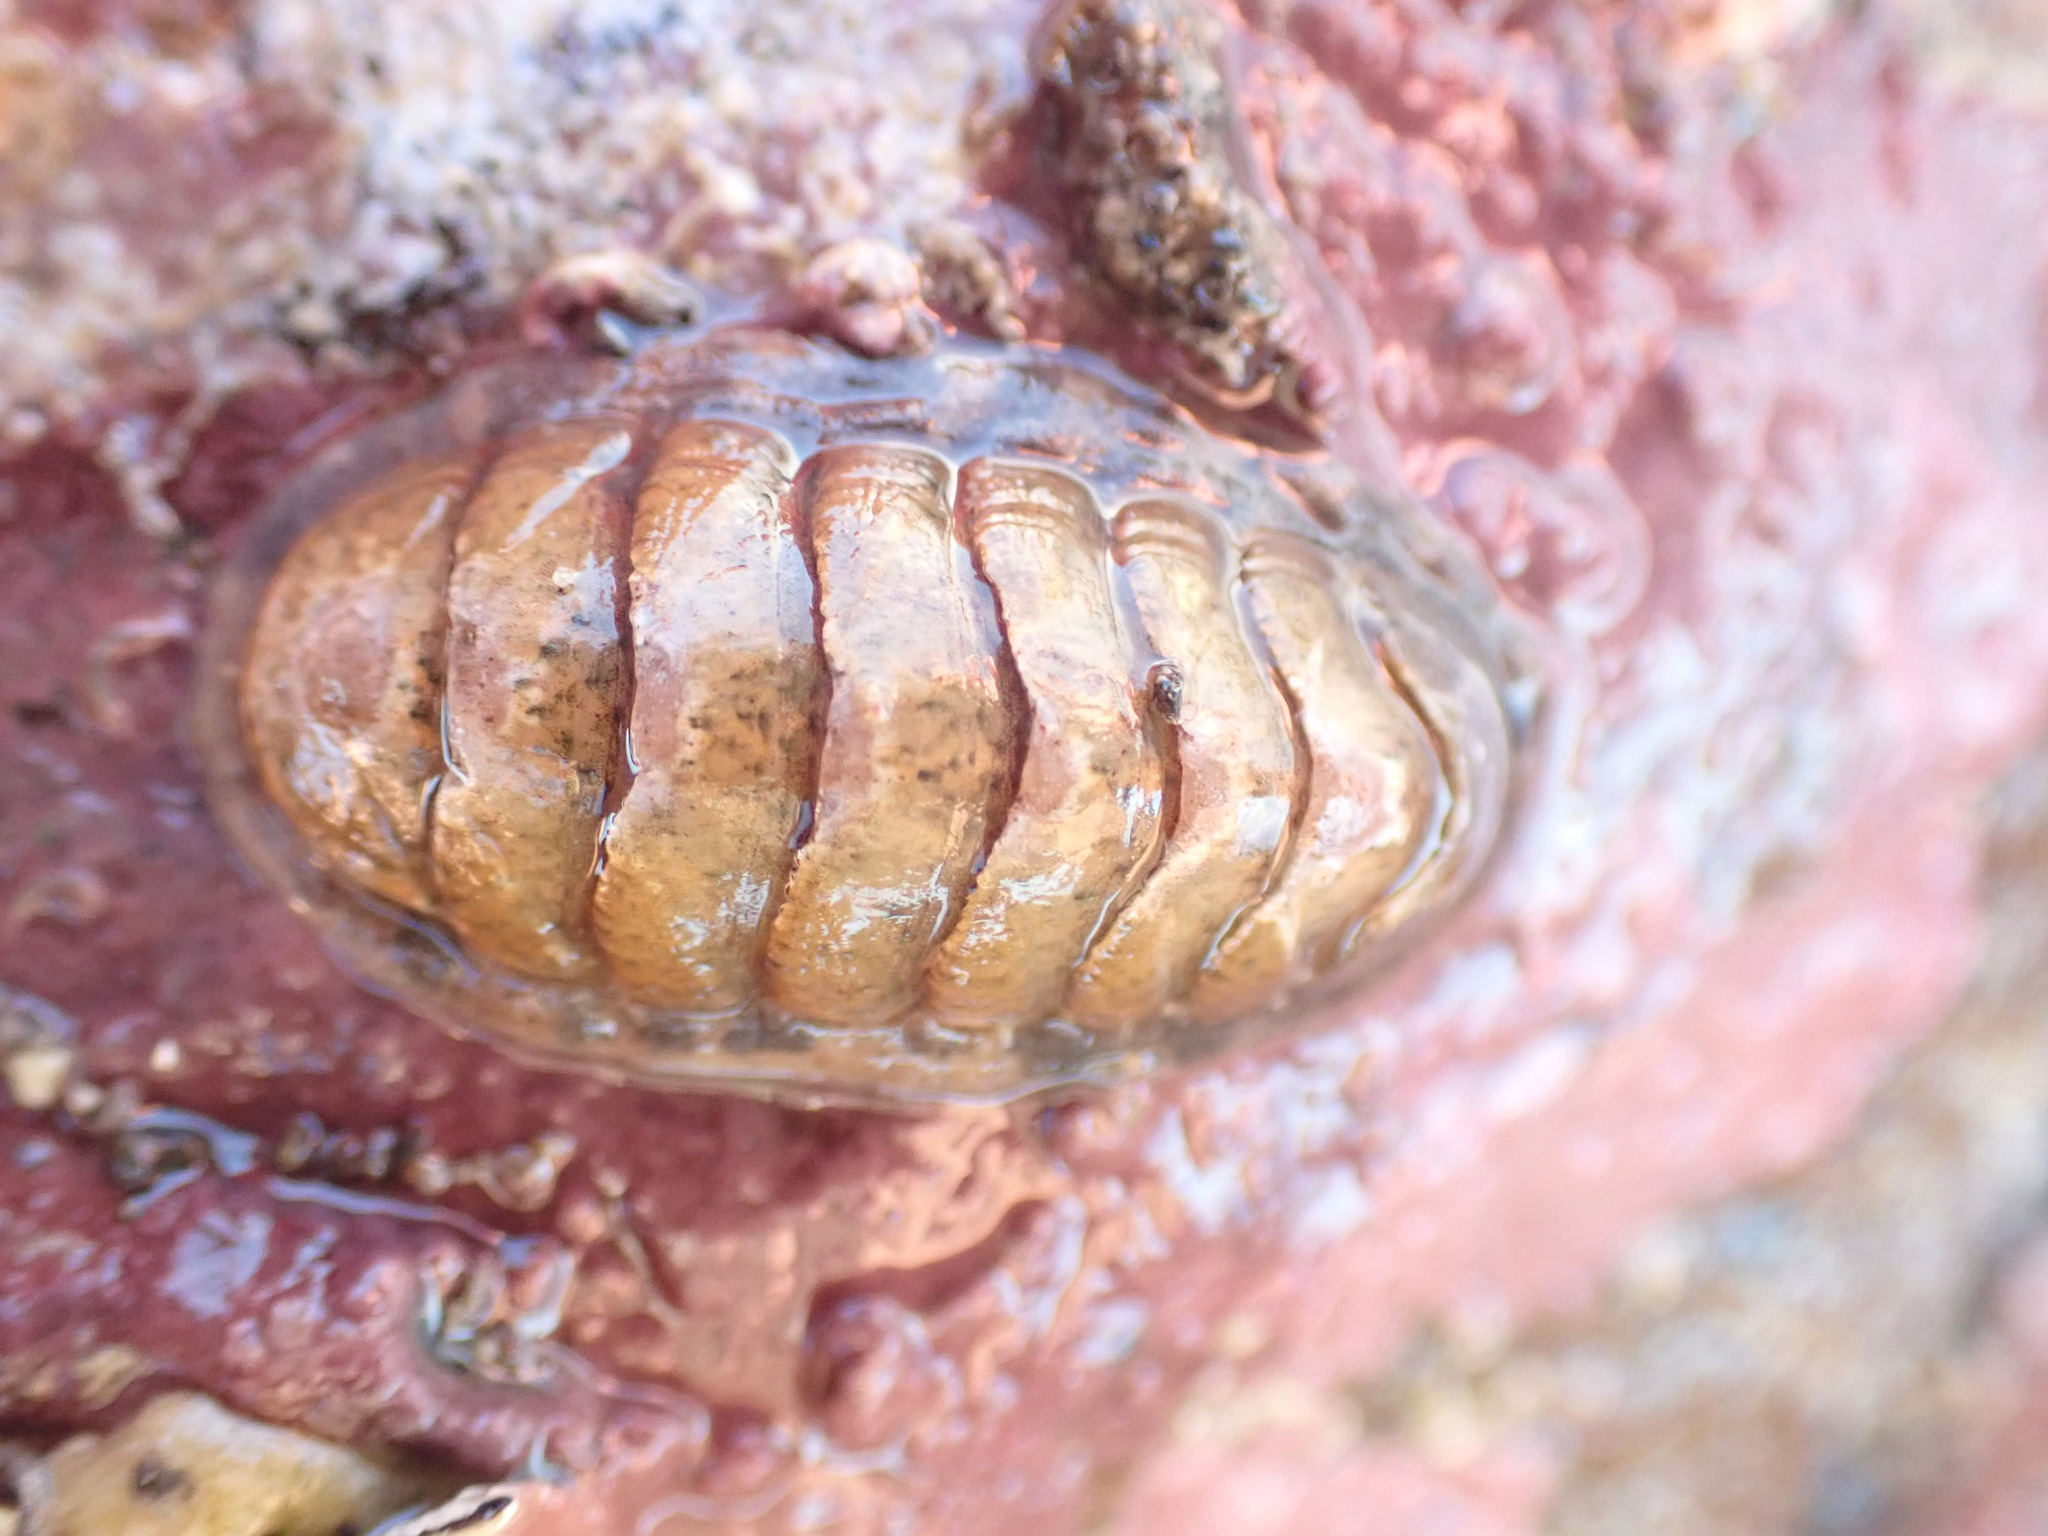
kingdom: Animalia
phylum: Mollusca
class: Polyplacophora
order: Chitonida
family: Ischnochitonidae
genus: Ischnochiton
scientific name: Ischnochiton maorianus
